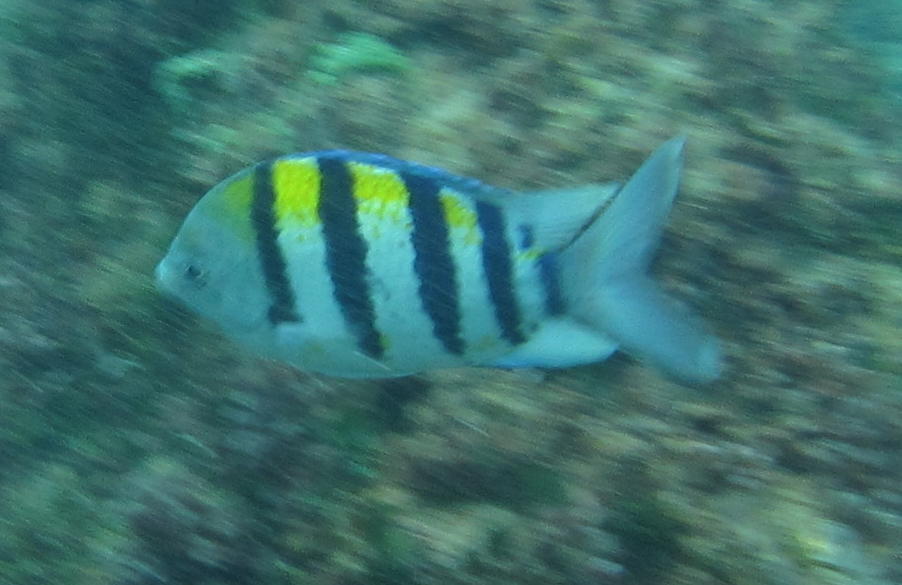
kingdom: Animalia
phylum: Chordata
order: Perciformes
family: Pomacentridae
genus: Abudefduf
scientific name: Abudefduf vaigiensis
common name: Indo-pacific sergeant
